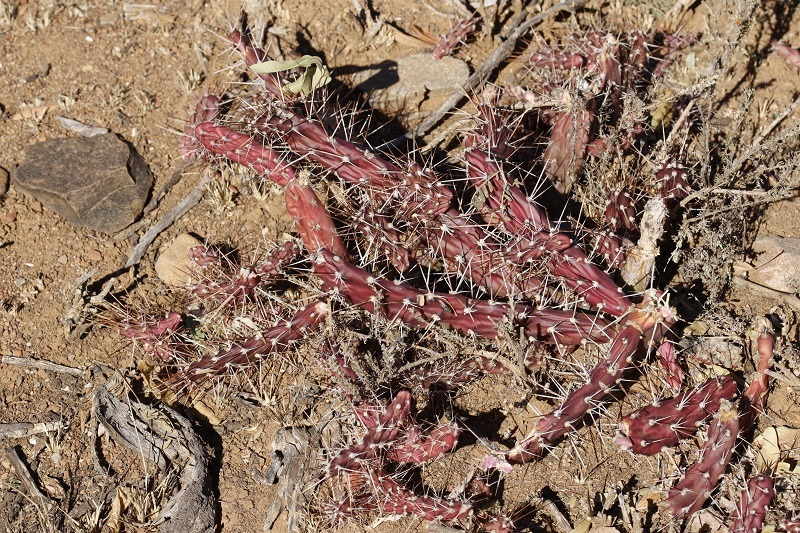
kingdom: Plantae
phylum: Tracheophyta
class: Magnoliopsida
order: Caryophyllales
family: Cactaceae
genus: Opuntia
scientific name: Opuntia aurantiaca
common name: Jointed pricklypear
